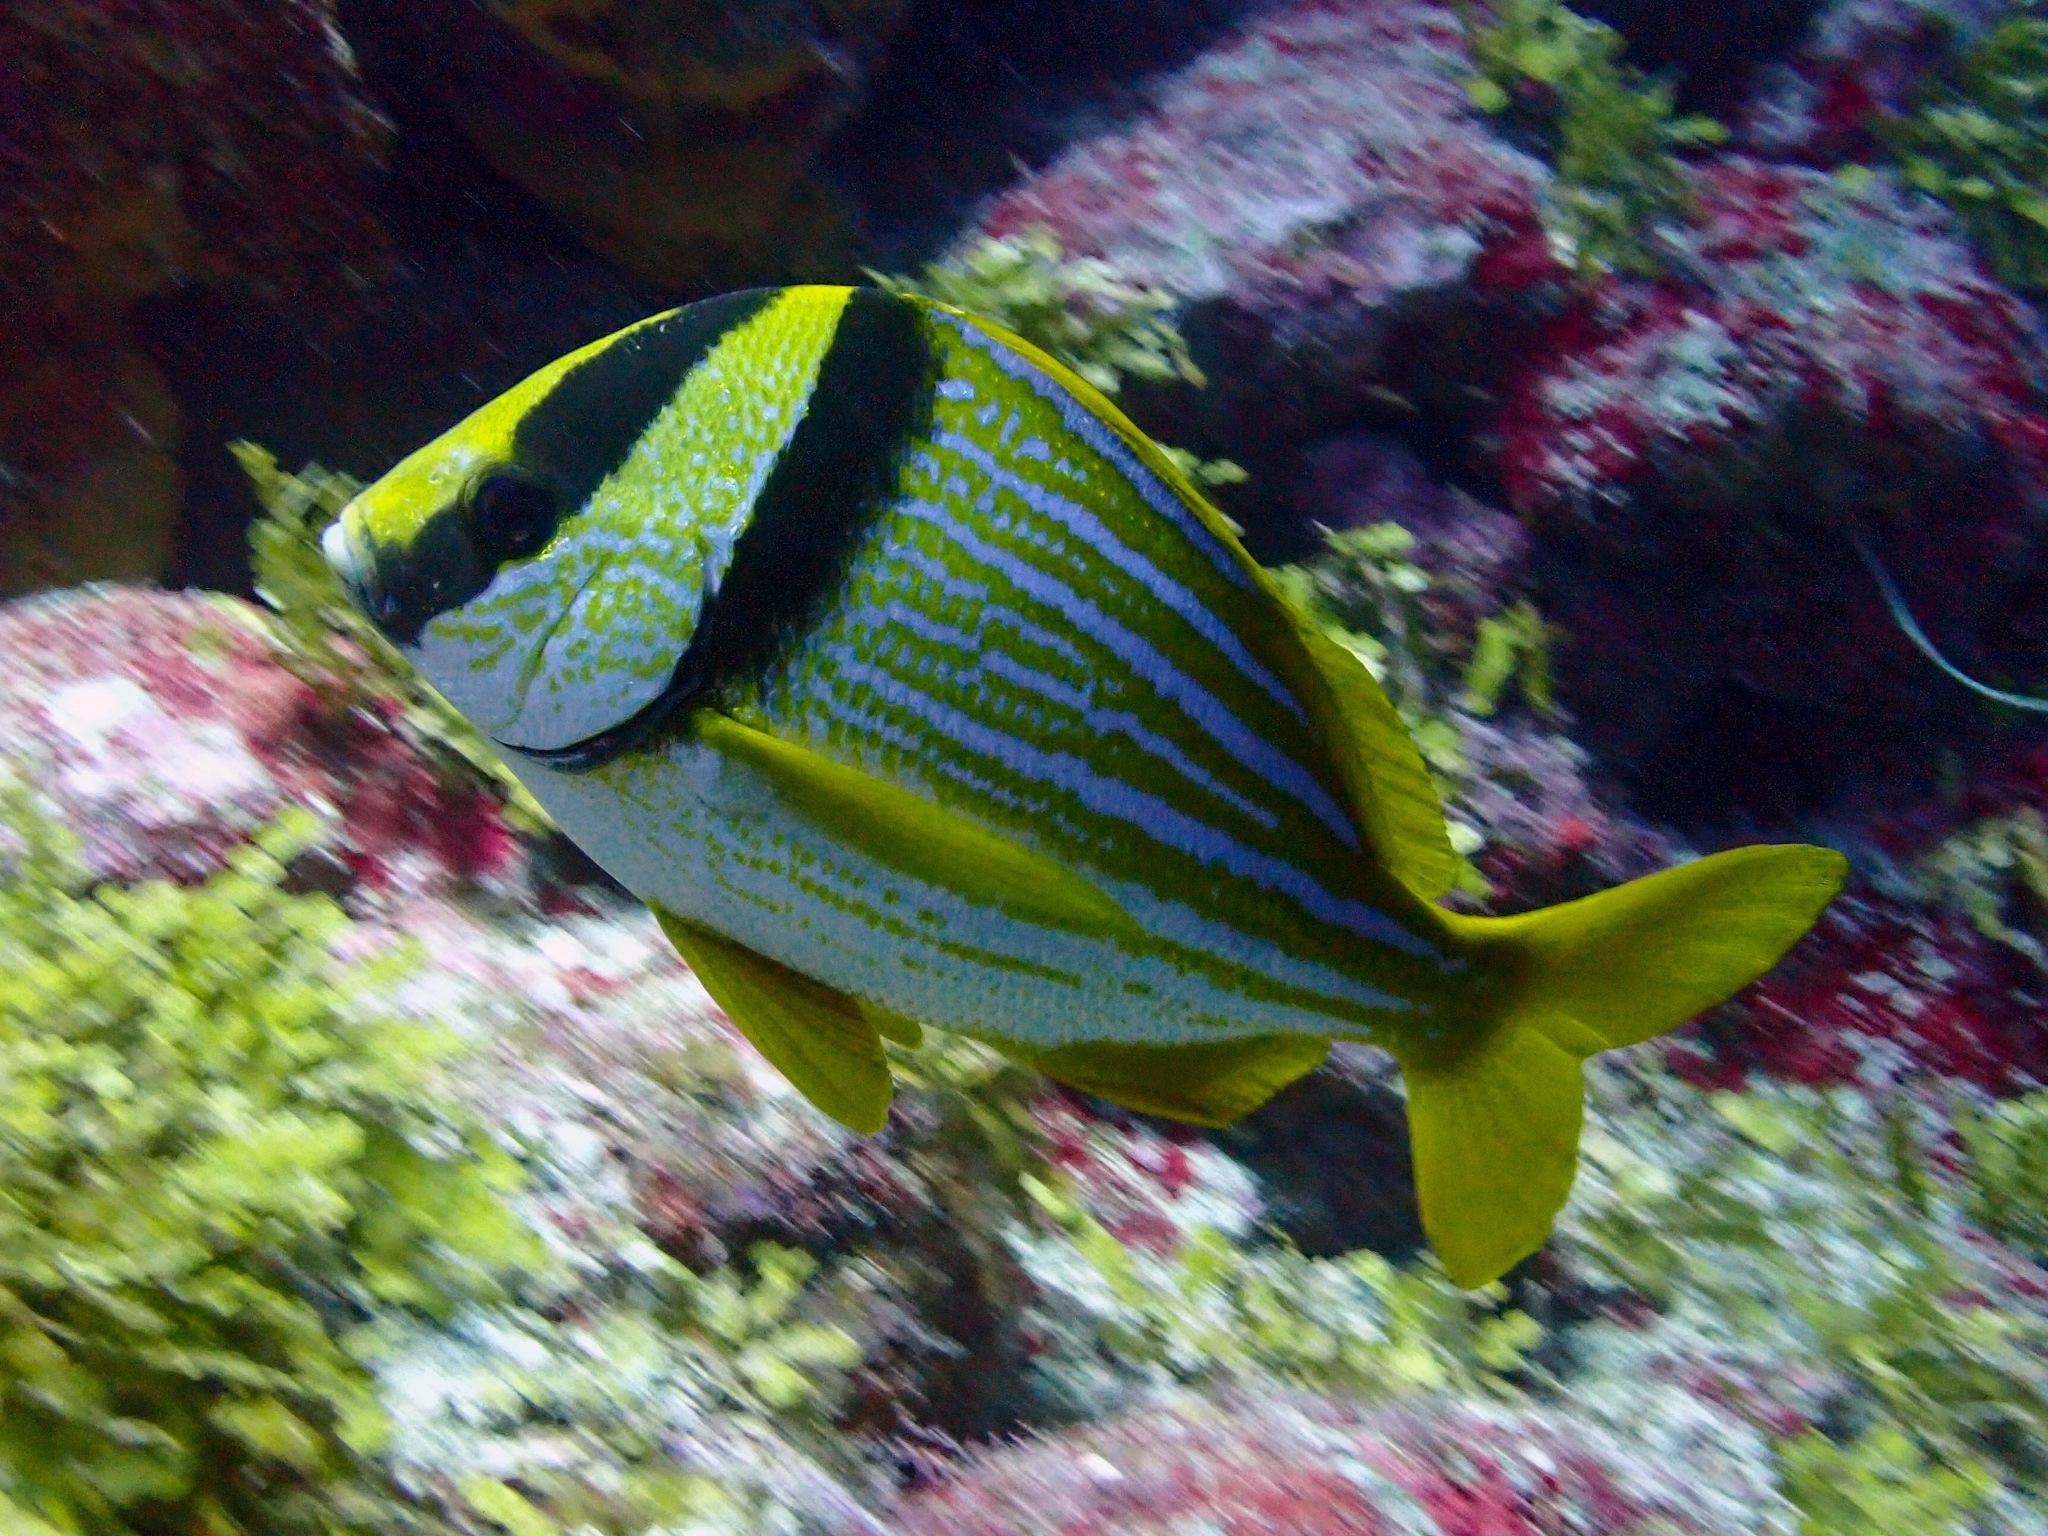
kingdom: Animalia
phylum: Chordata
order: Perciformes
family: Haemulidae
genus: Anisotremus
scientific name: Anisotremus virginicus
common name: Porkfish
